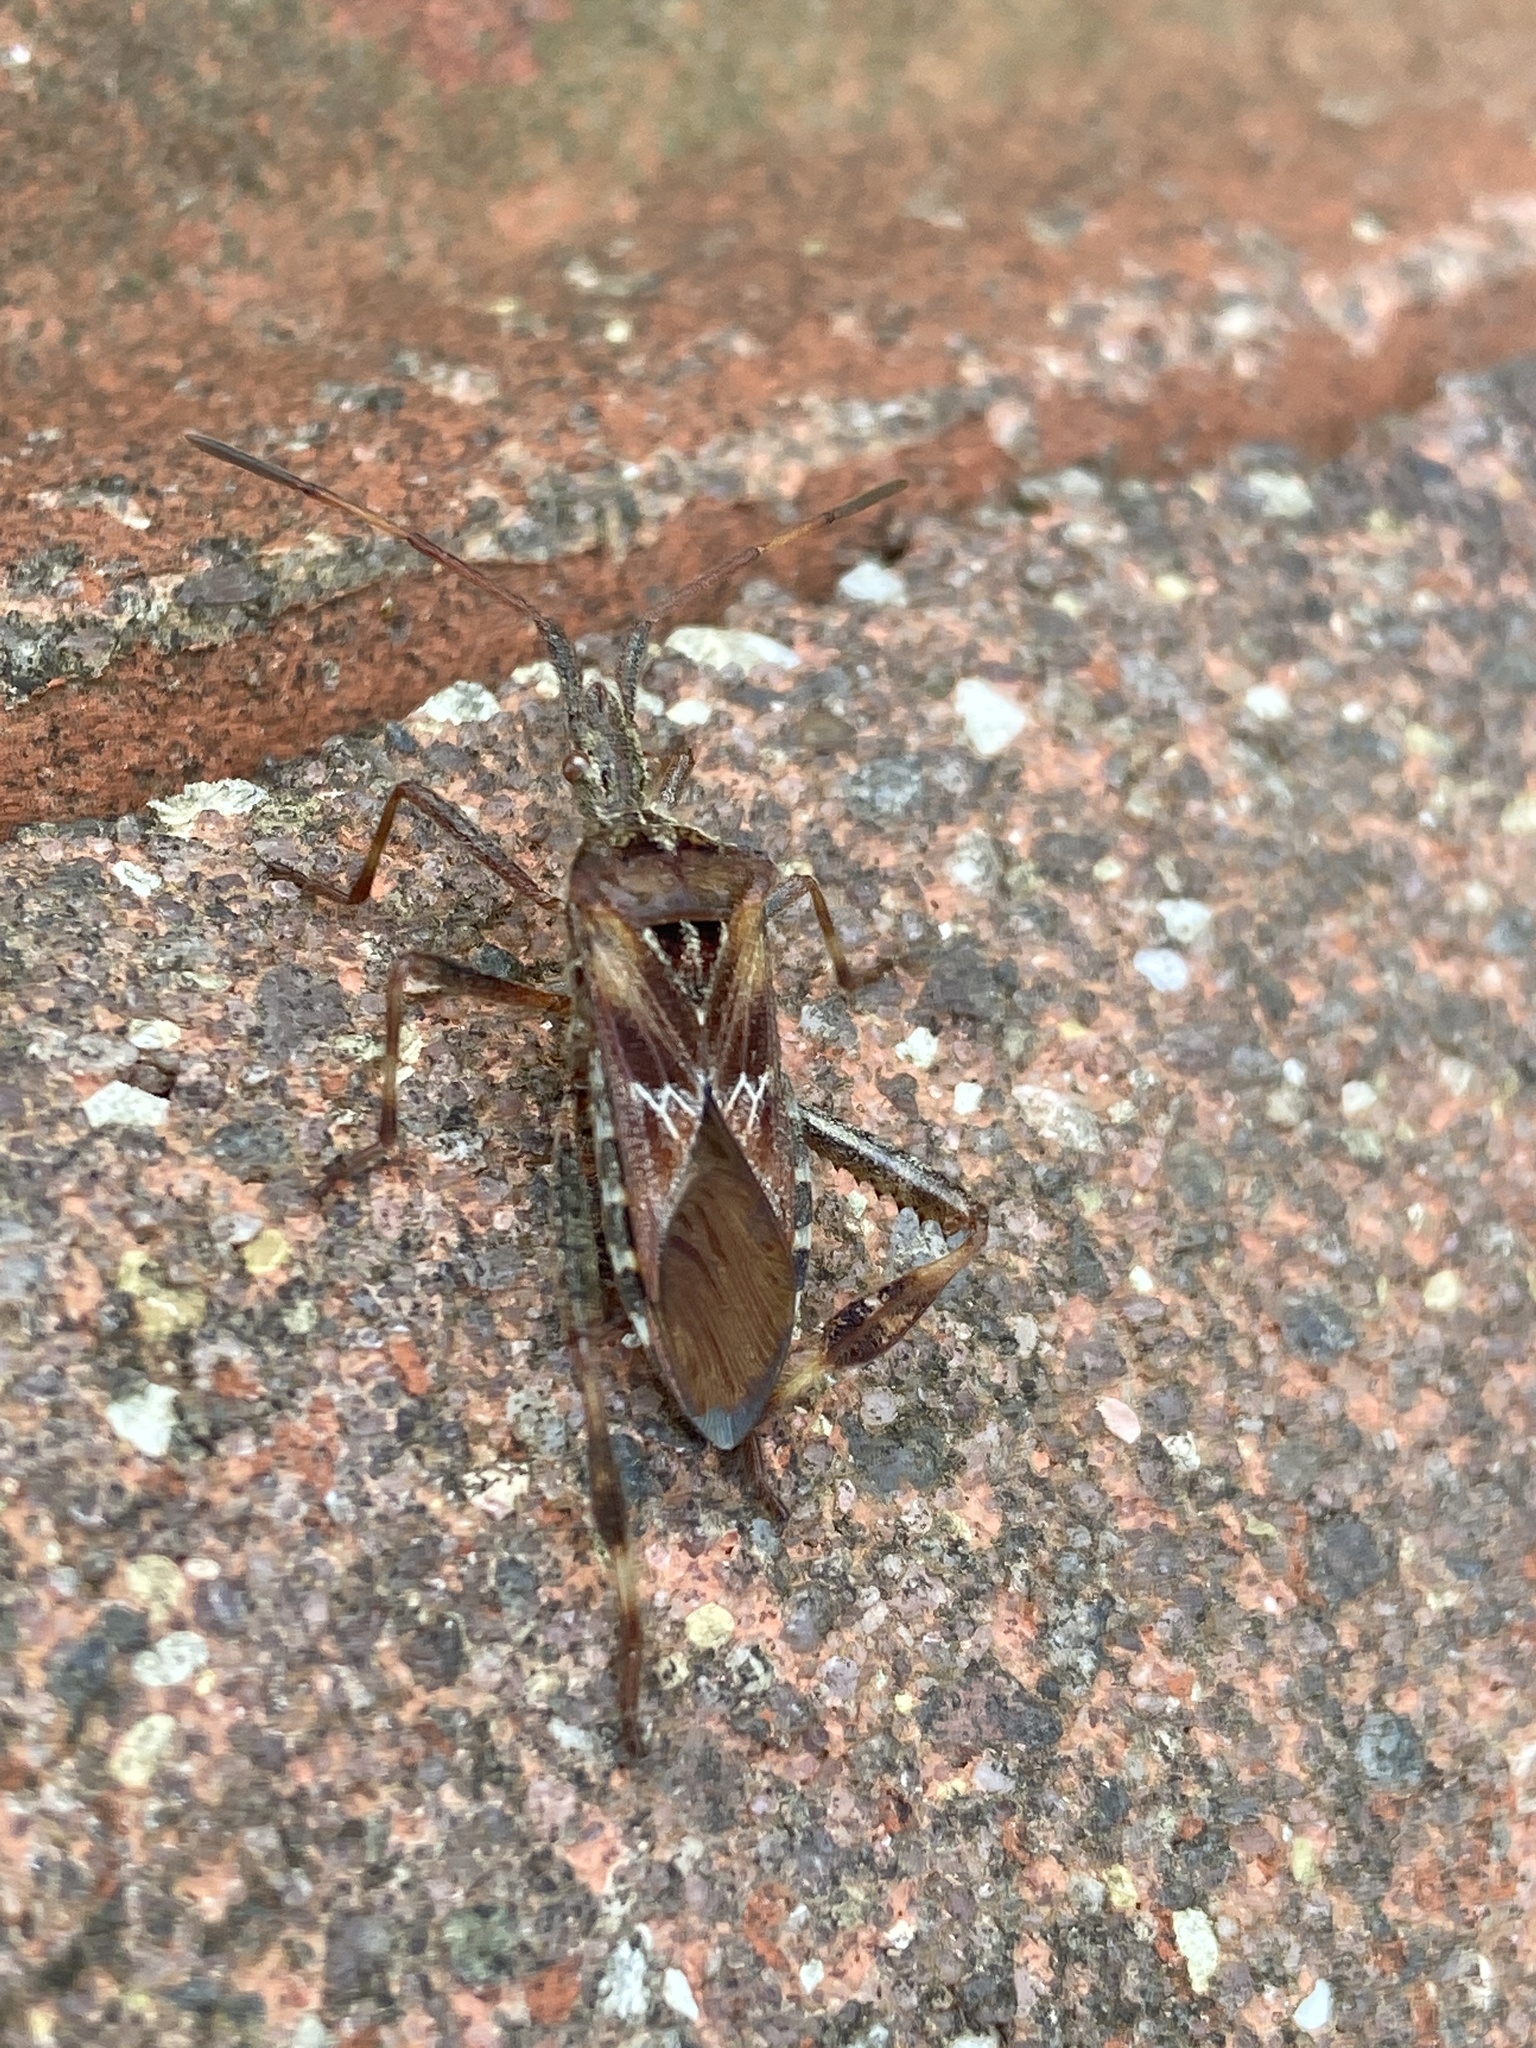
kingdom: Animalia
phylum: Arthropoda
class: Insecta
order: Hemiptera
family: Coreidae
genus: Leptoglossus
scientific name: Leptoglossus occidentalis
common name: Western conifer-seed bug
